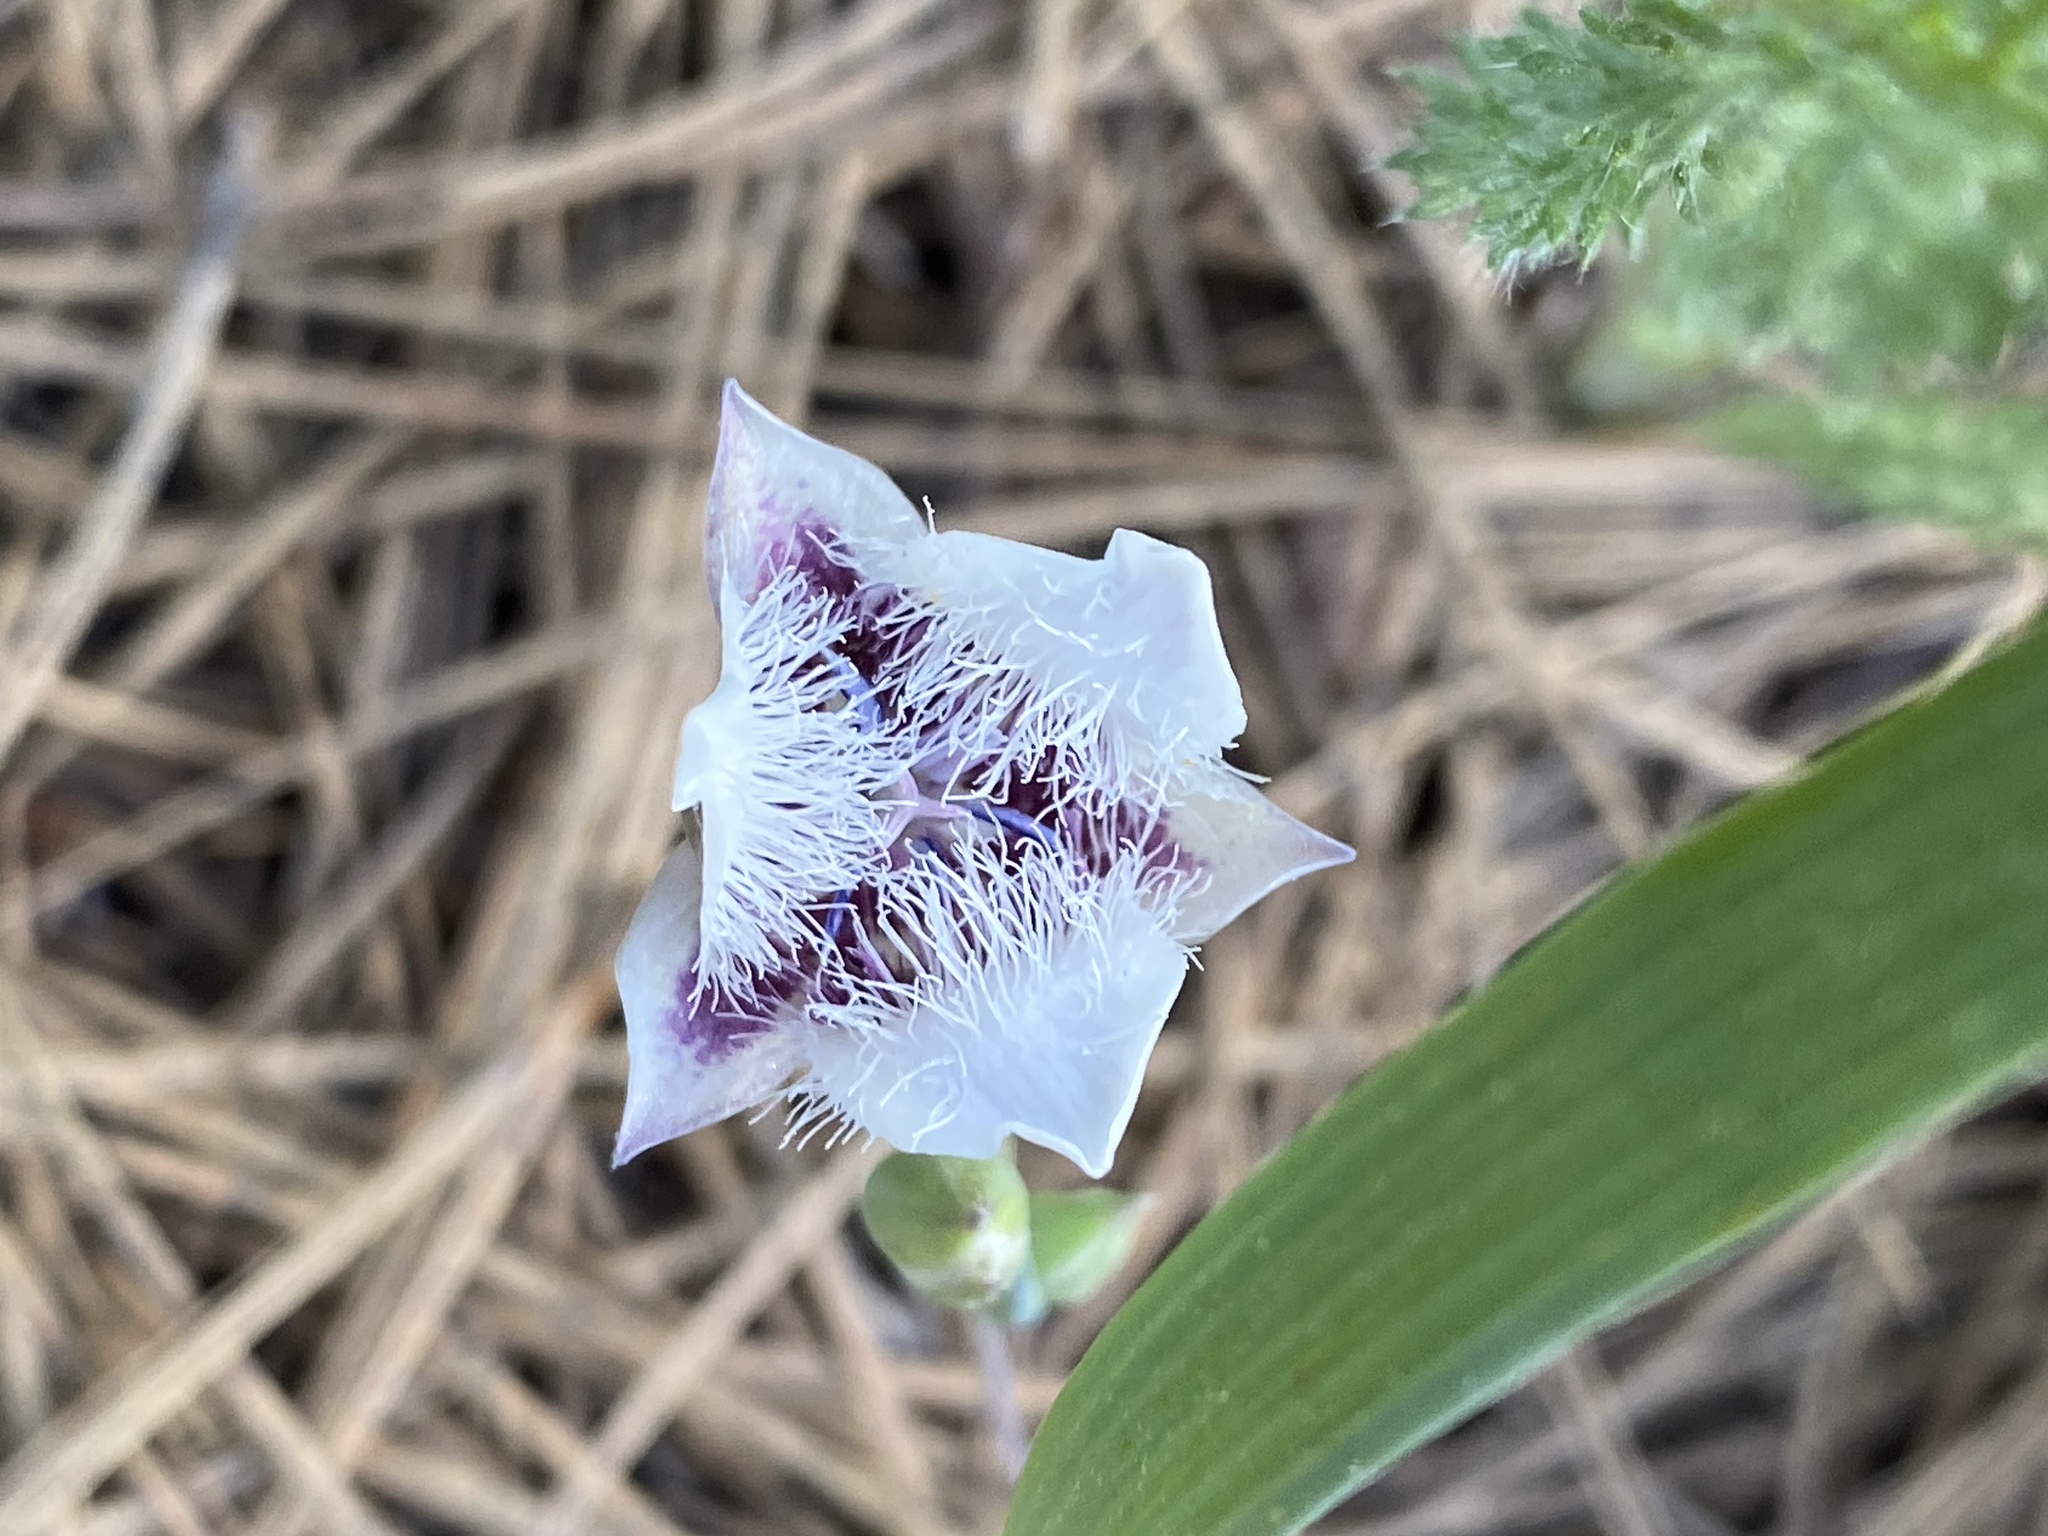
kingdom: Plantae
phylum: Tracheophyta
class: Liliopsida
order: Liliales
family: Liliaceae
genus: Calochortus
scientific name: Calochortus elegans
